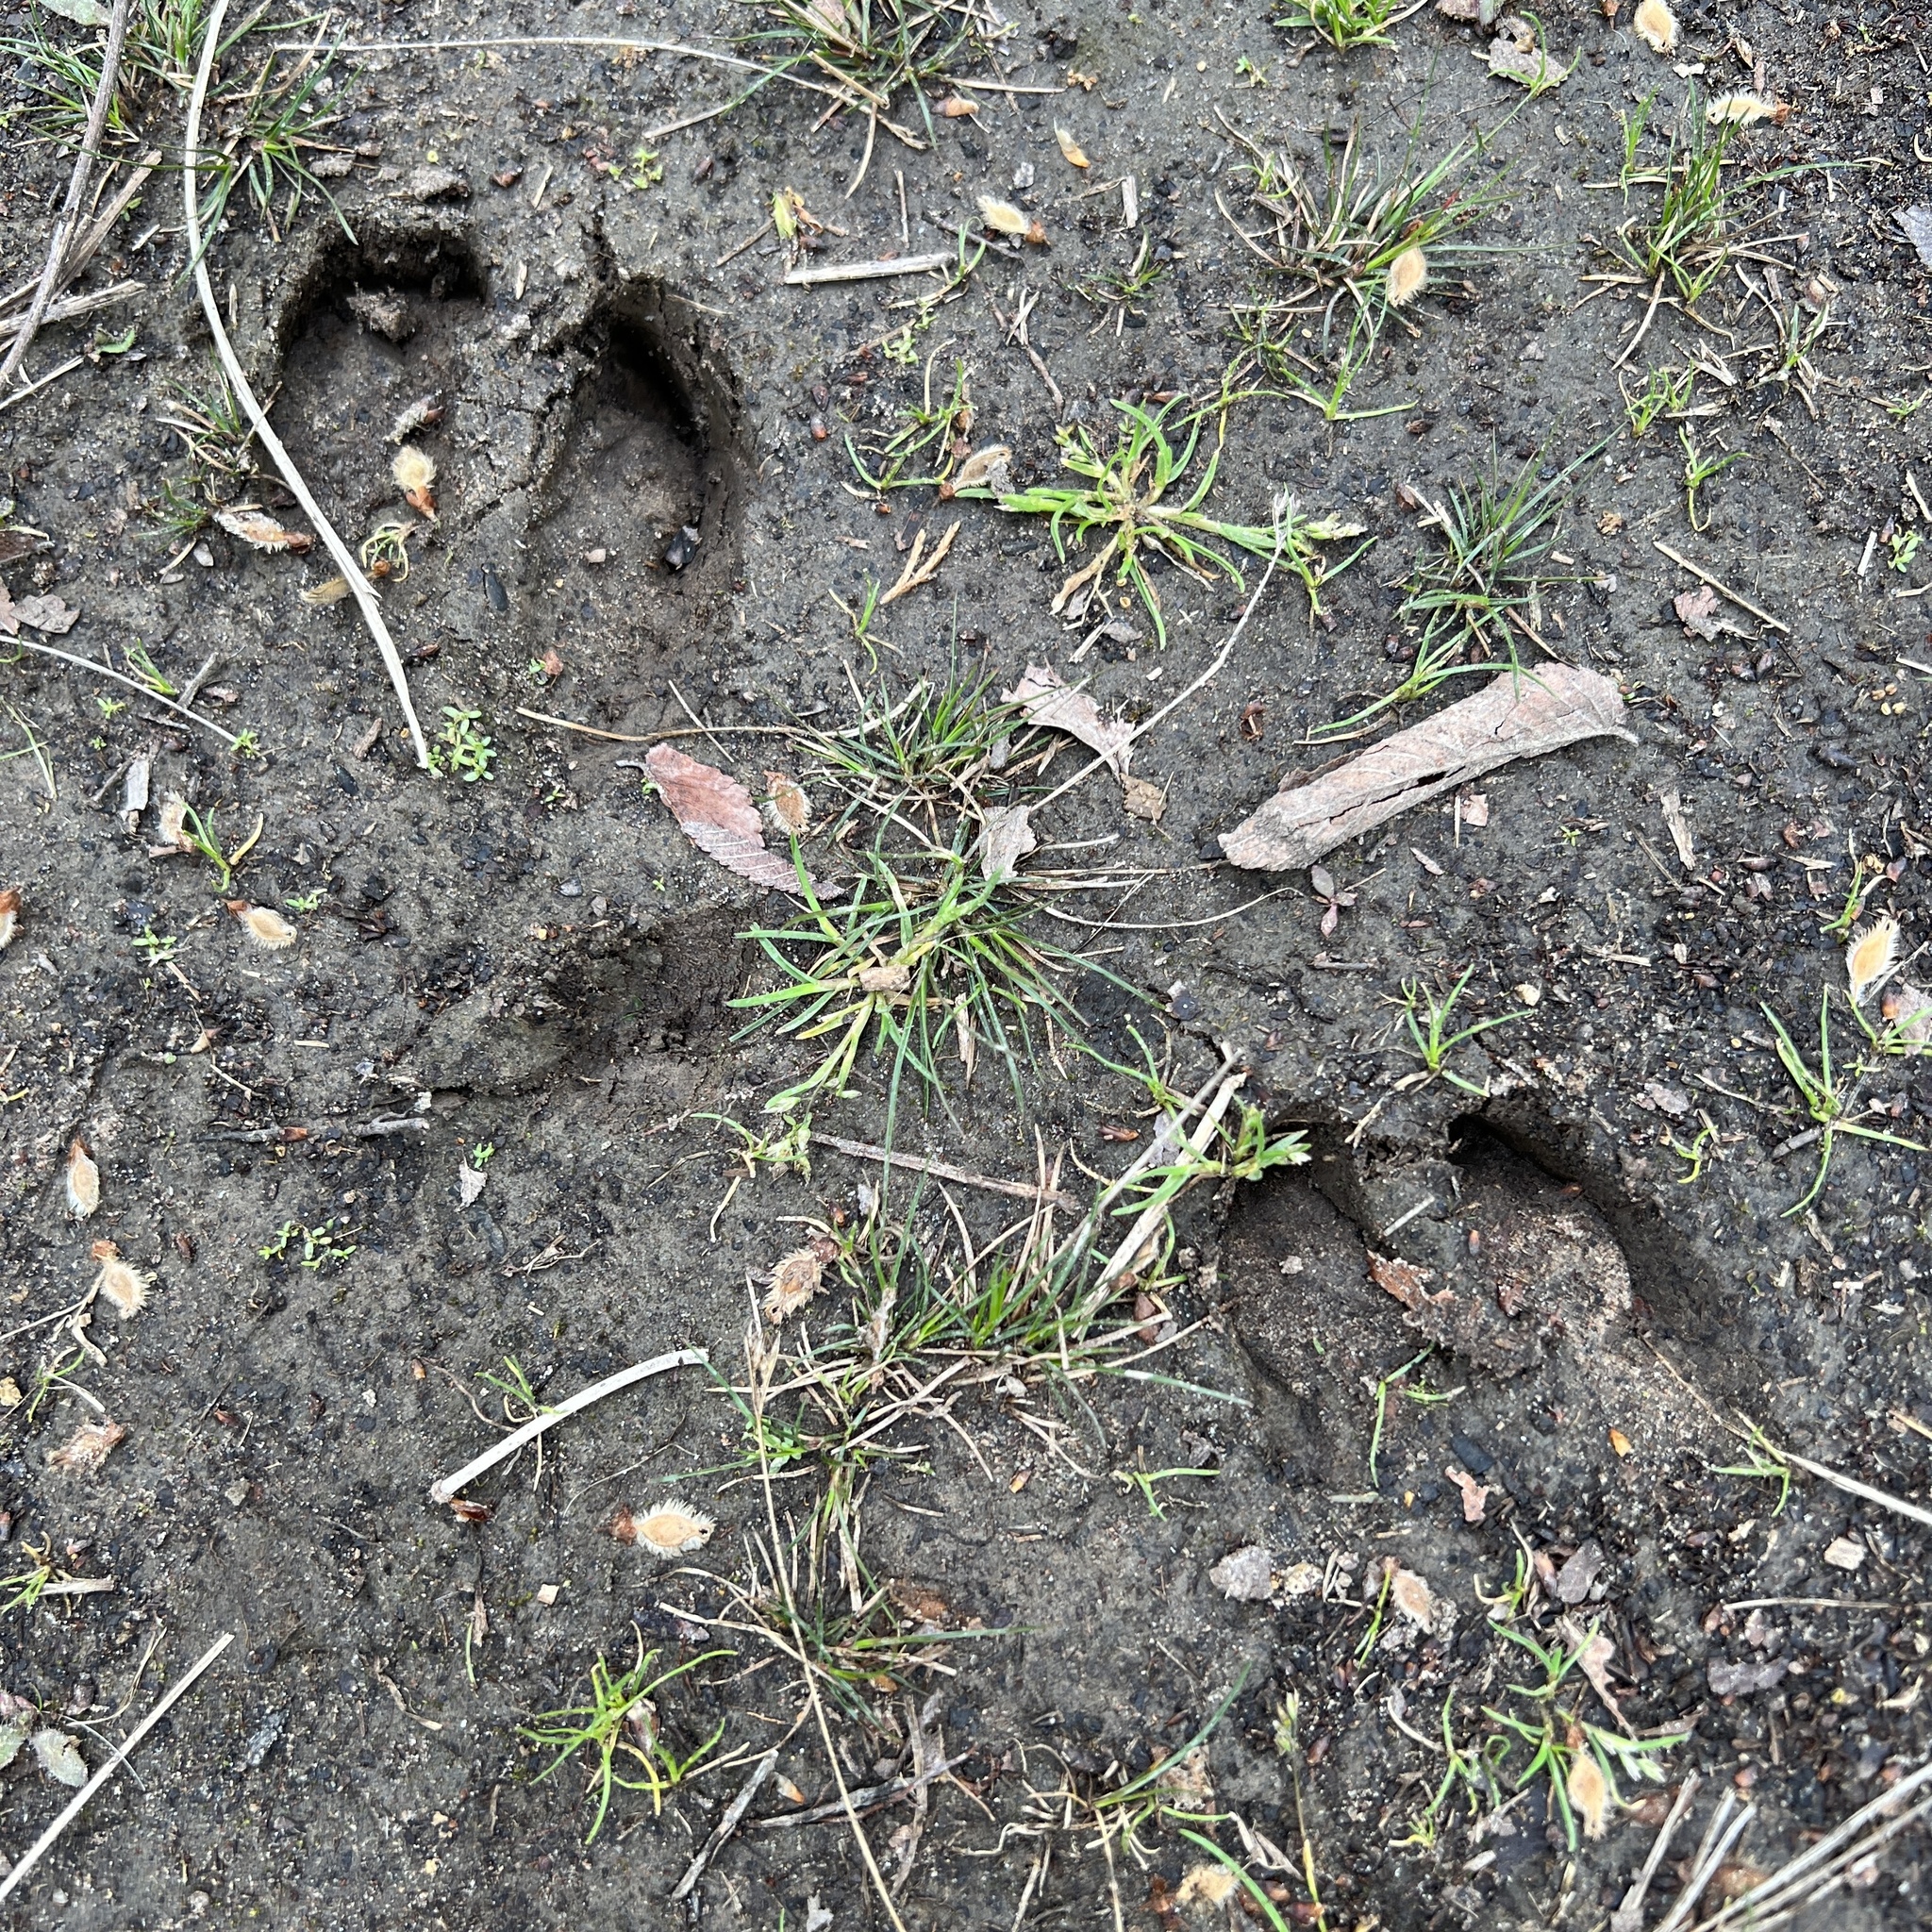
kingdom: Animalia
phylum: Chordata
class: Mammalia
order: Artiodactyla
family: Suidae
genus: Sus
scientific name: Sus scrofa
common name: Wild boar
